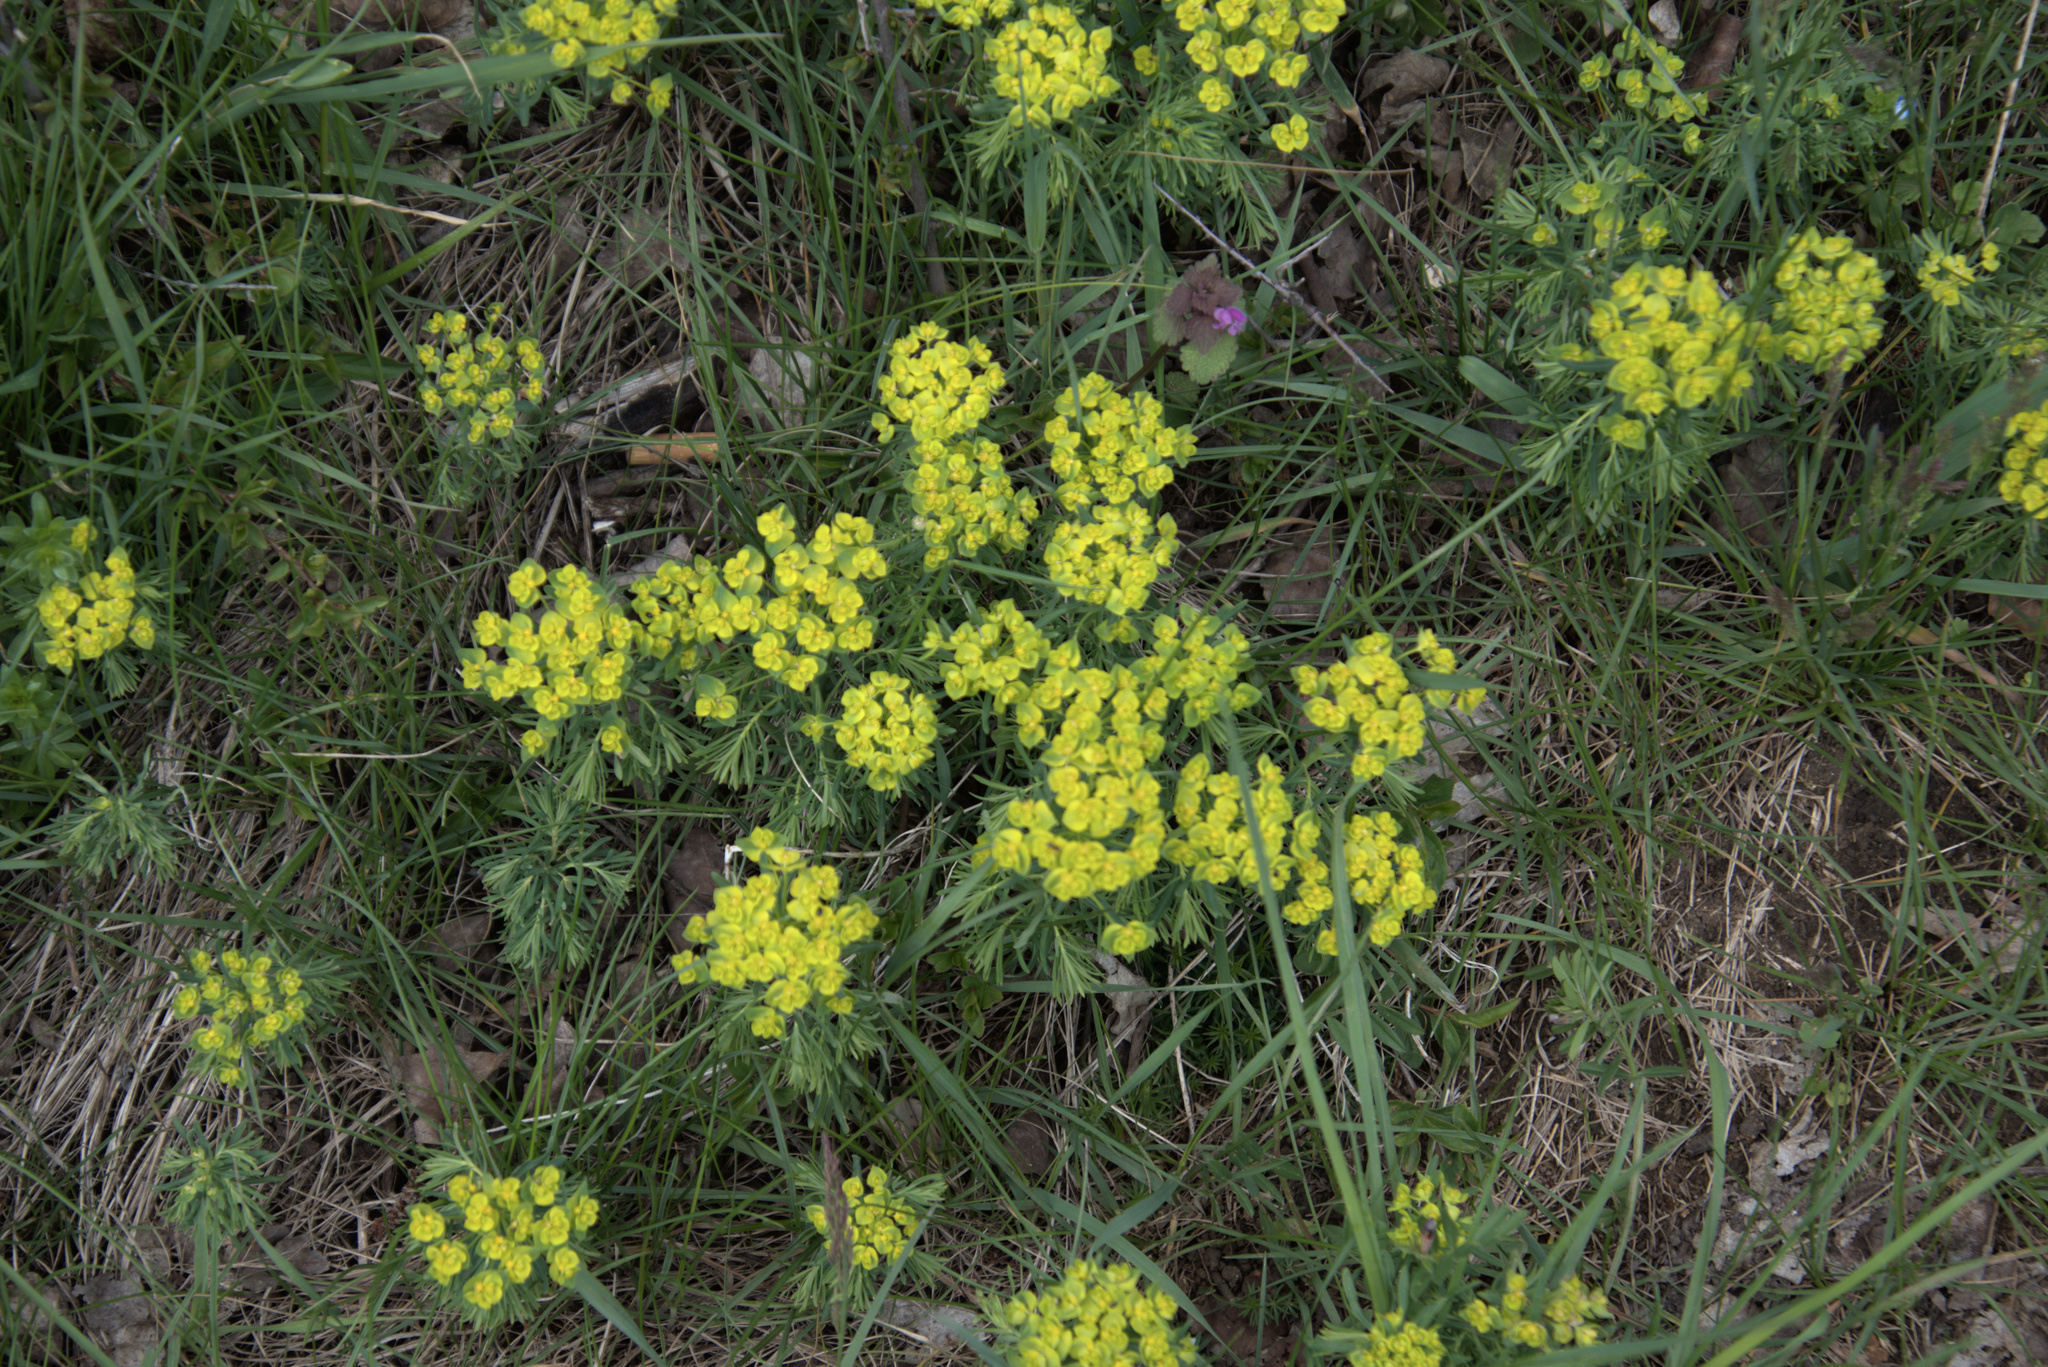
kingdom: Plantae
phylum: Tracheophyta
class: Magnoliopsida
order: Malpighiales
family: Euphorbiaceae
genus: Euphorbia
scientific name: Euphorbia cyparissias
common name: Cypress spurge
